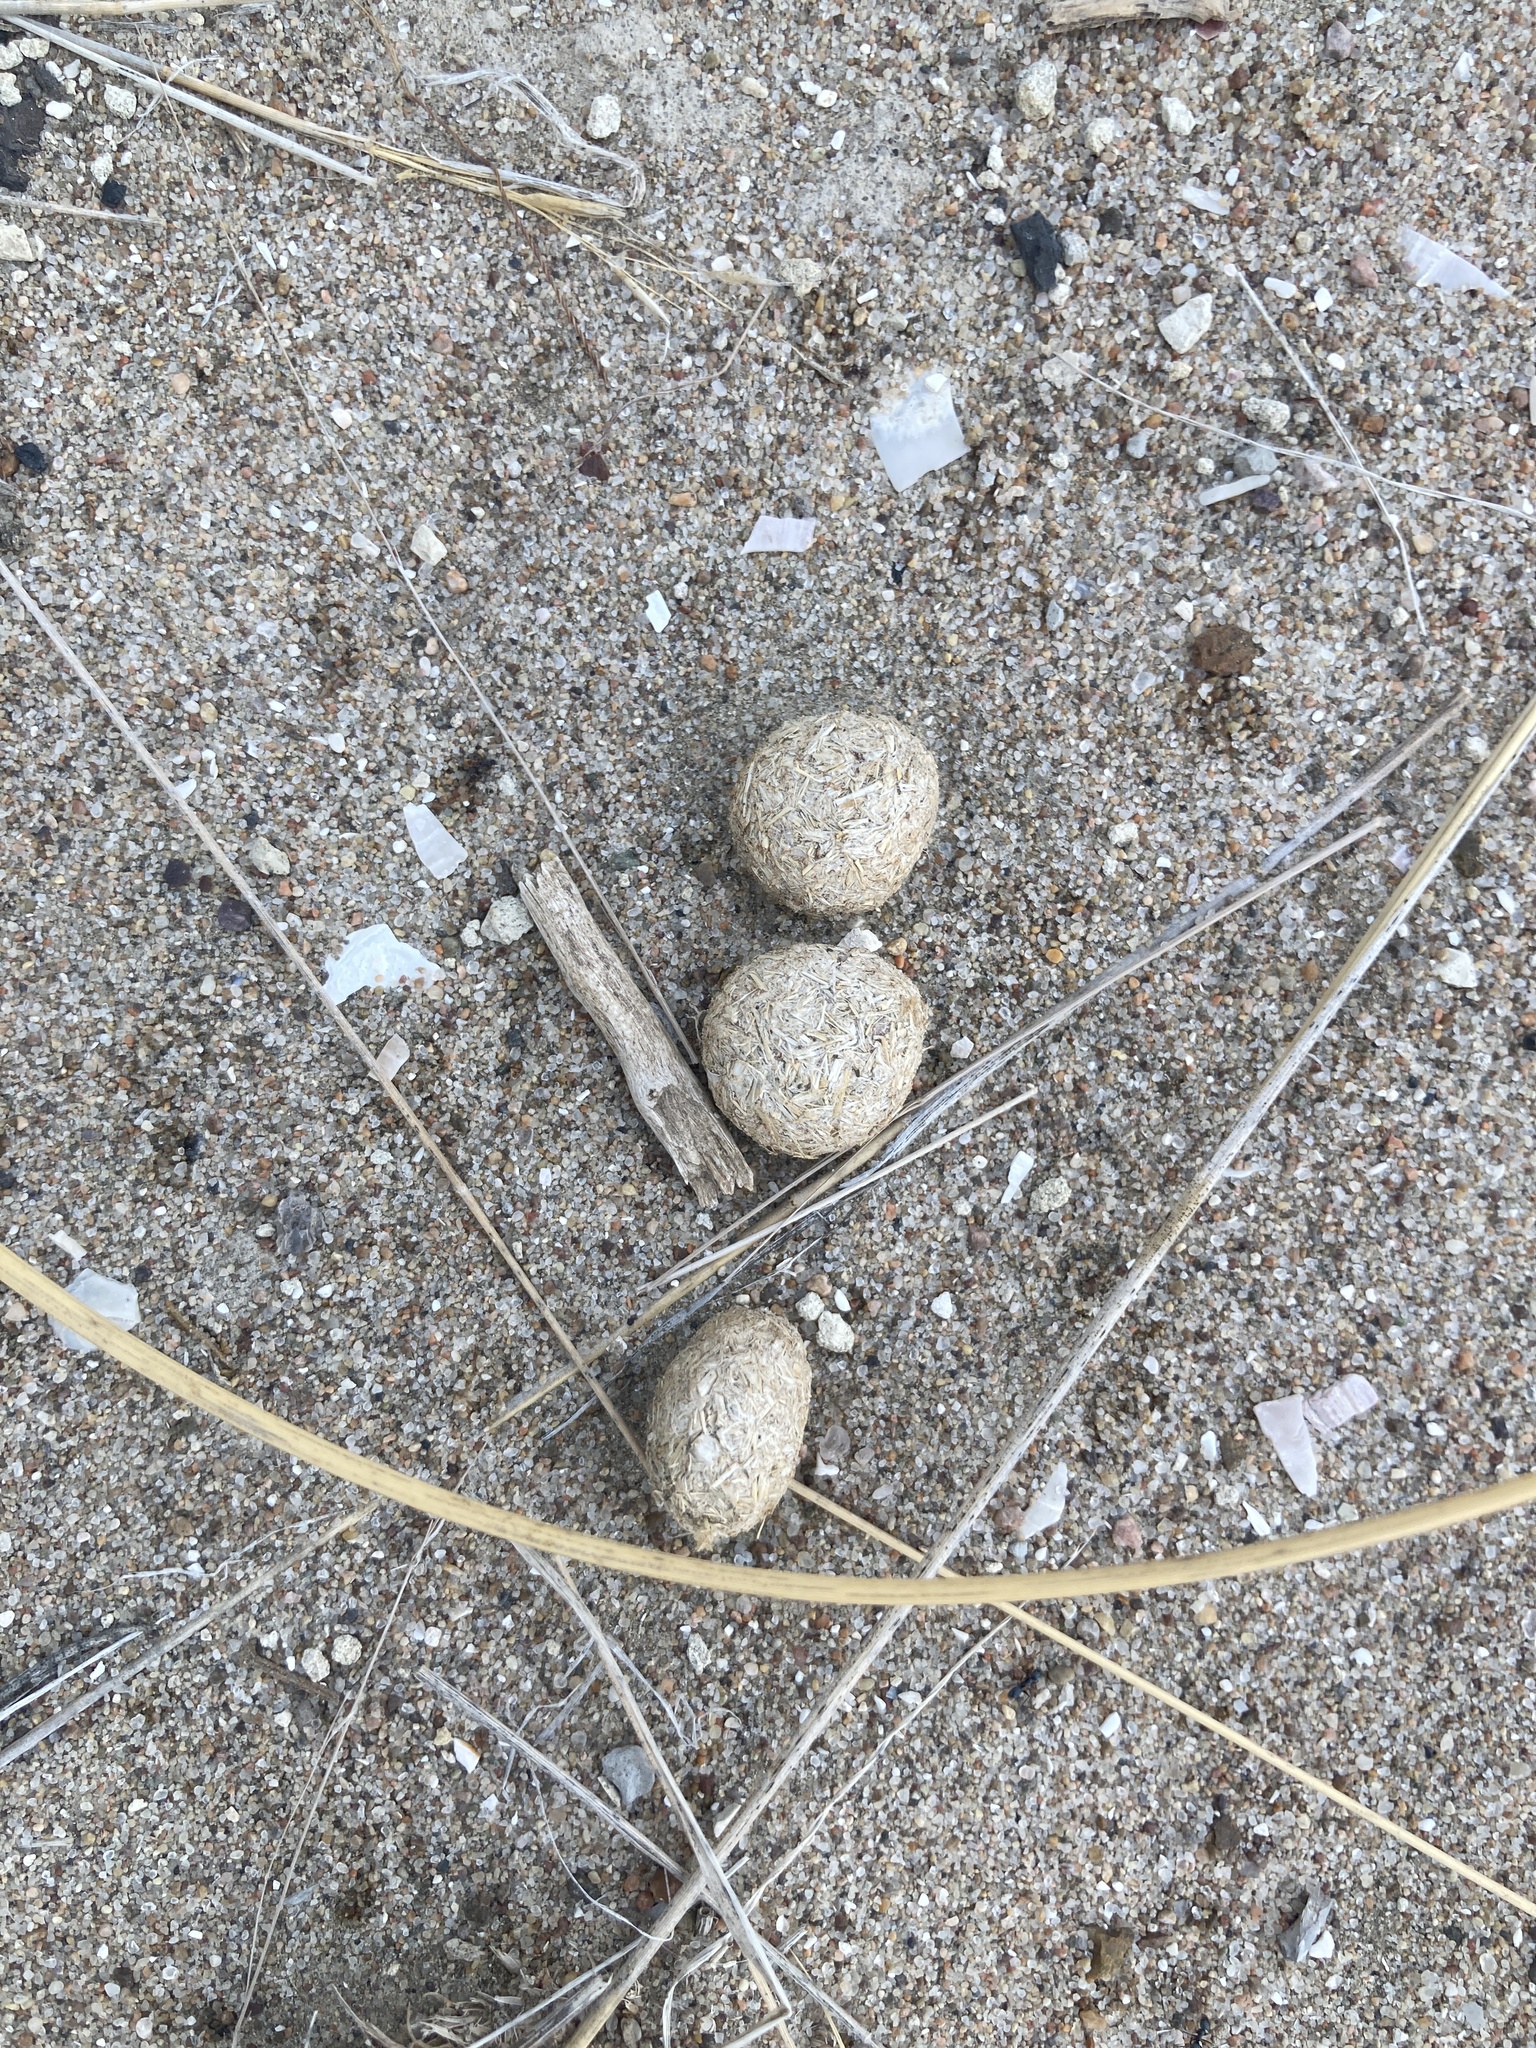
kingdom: Animalia
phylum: Chordata
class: Mammalia
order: Lagomorpha
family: Leporidae
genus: Lepus
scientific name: Lepus europaeus
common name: European hare
